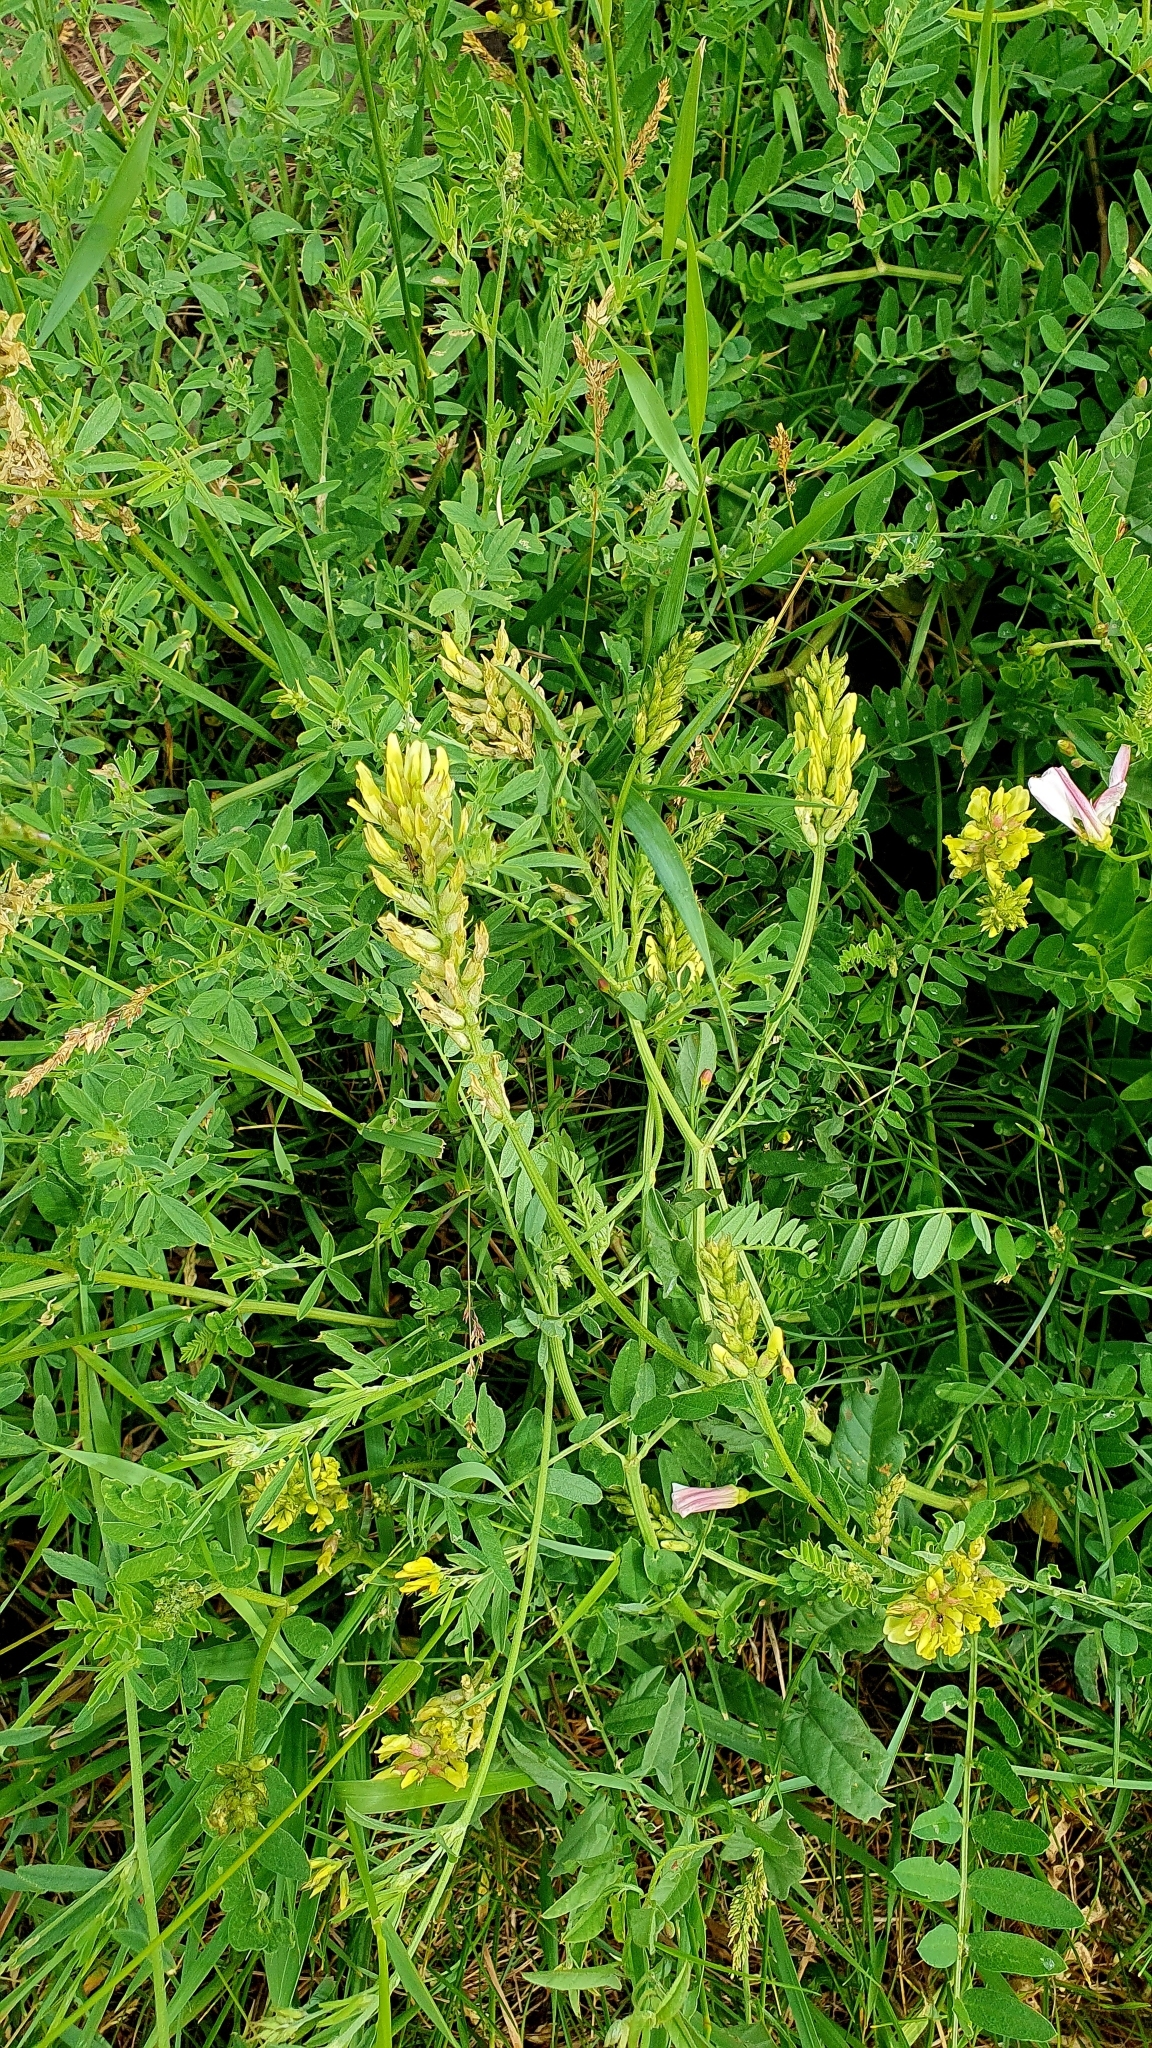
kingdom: Plantae
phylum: Tracheophyta
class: Magnoliopsida
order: Fabales
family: Fabaceae
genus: Astragalus
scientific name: Astragalus cicer
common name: Chick-pea milk-vetch
